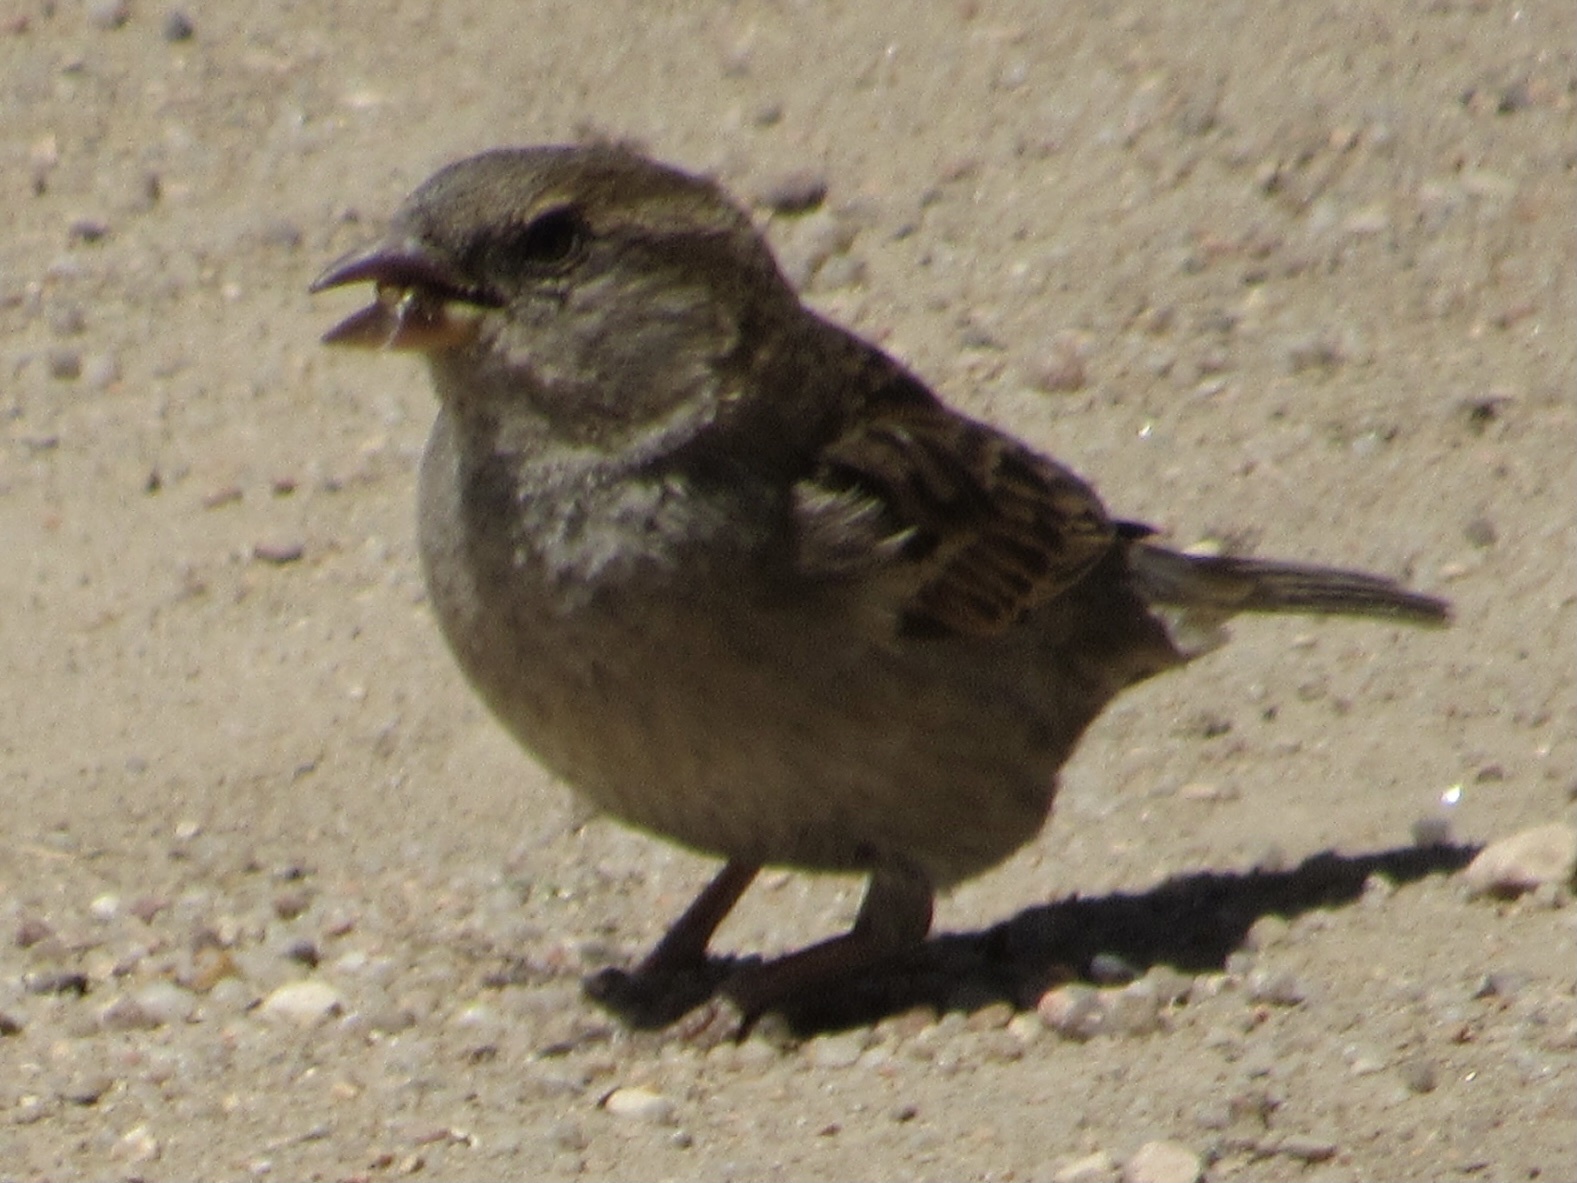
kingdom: Animalia
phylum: Chordata
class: Aves
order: Passeriformes
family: Passeridae
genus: Passer
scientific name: Passer domesticus
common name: House sparrow
